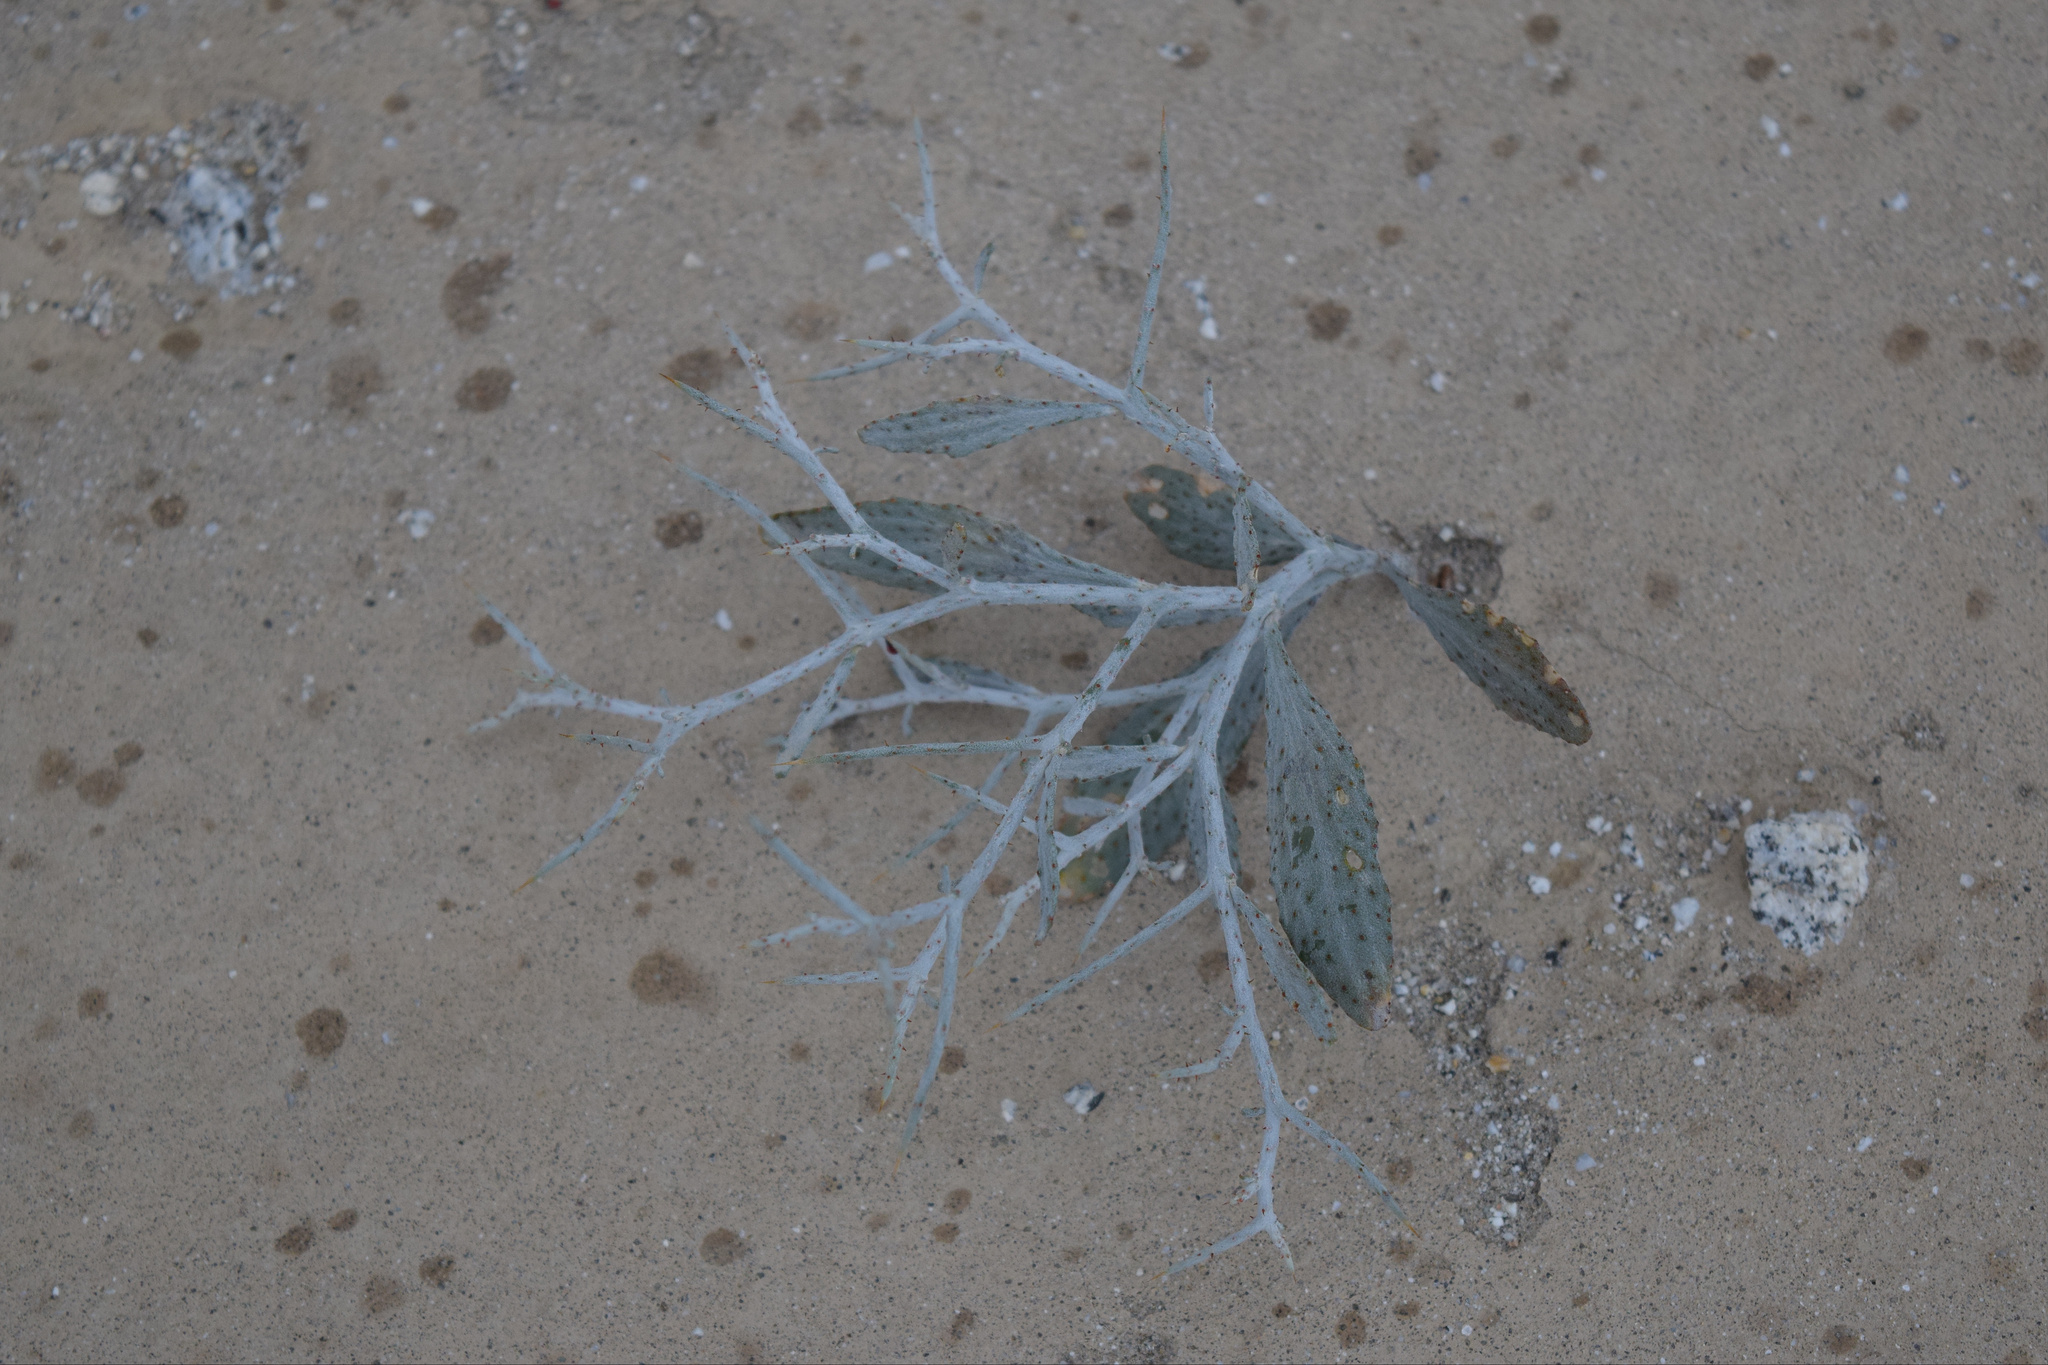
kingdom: Plantae
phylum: Tracheophyta
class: Magnoliopsida
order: Fabales
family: Fabaceae
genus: Psorothamnus
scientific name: Psorothamnus spinosus
